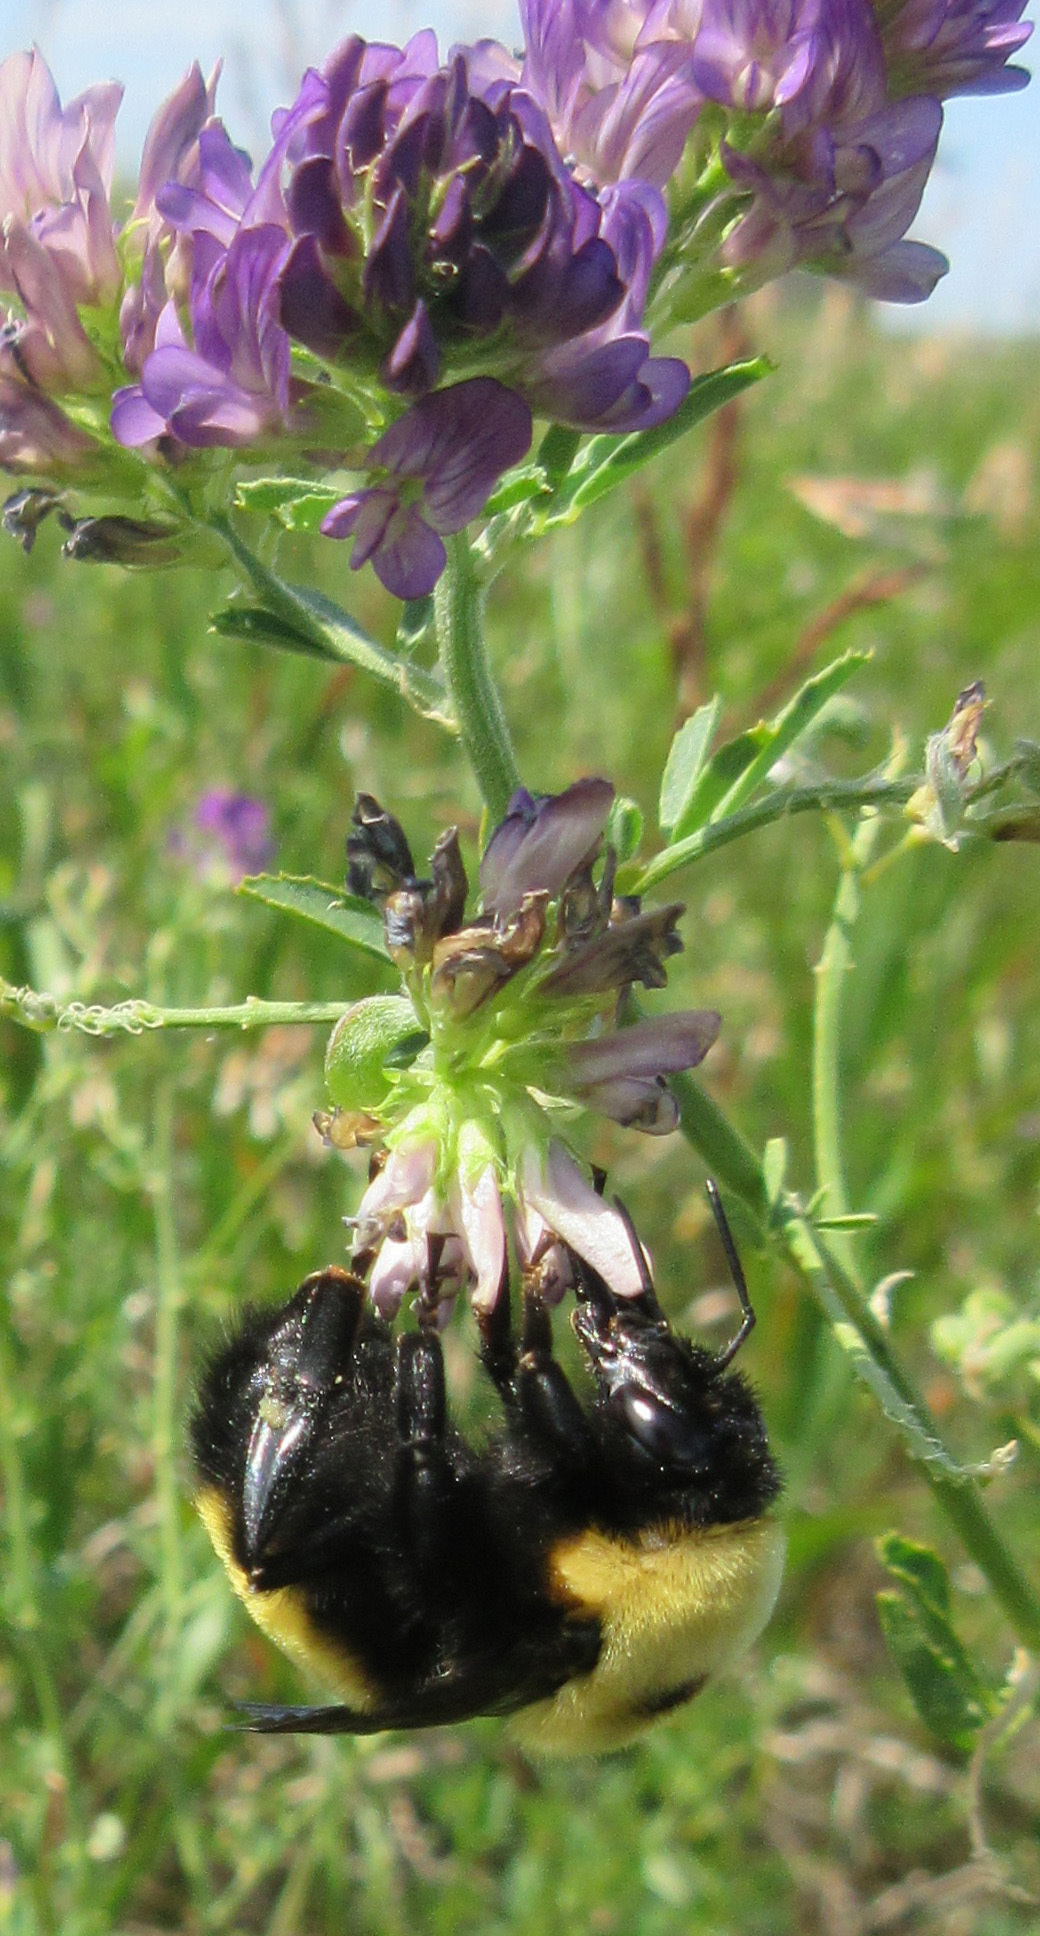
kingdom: Animalia
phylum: Arthropoda
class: Insecta
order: Hymenoptera
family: Apidae
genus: Bombus
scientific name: Bombus nevadensis
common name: Nevada bumble bee
